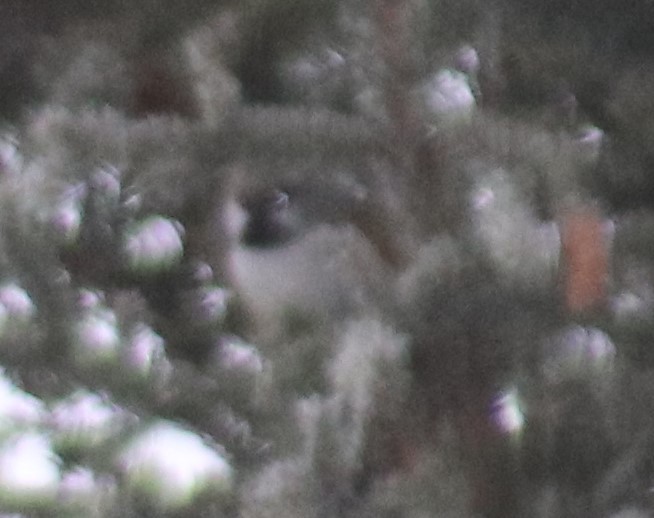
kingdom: Animalia
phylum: Chordata
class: Aves
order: Passeriformes
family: Paridae
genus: Poecile
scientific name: Poecile hudsonicus
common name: Boreal chickadee
